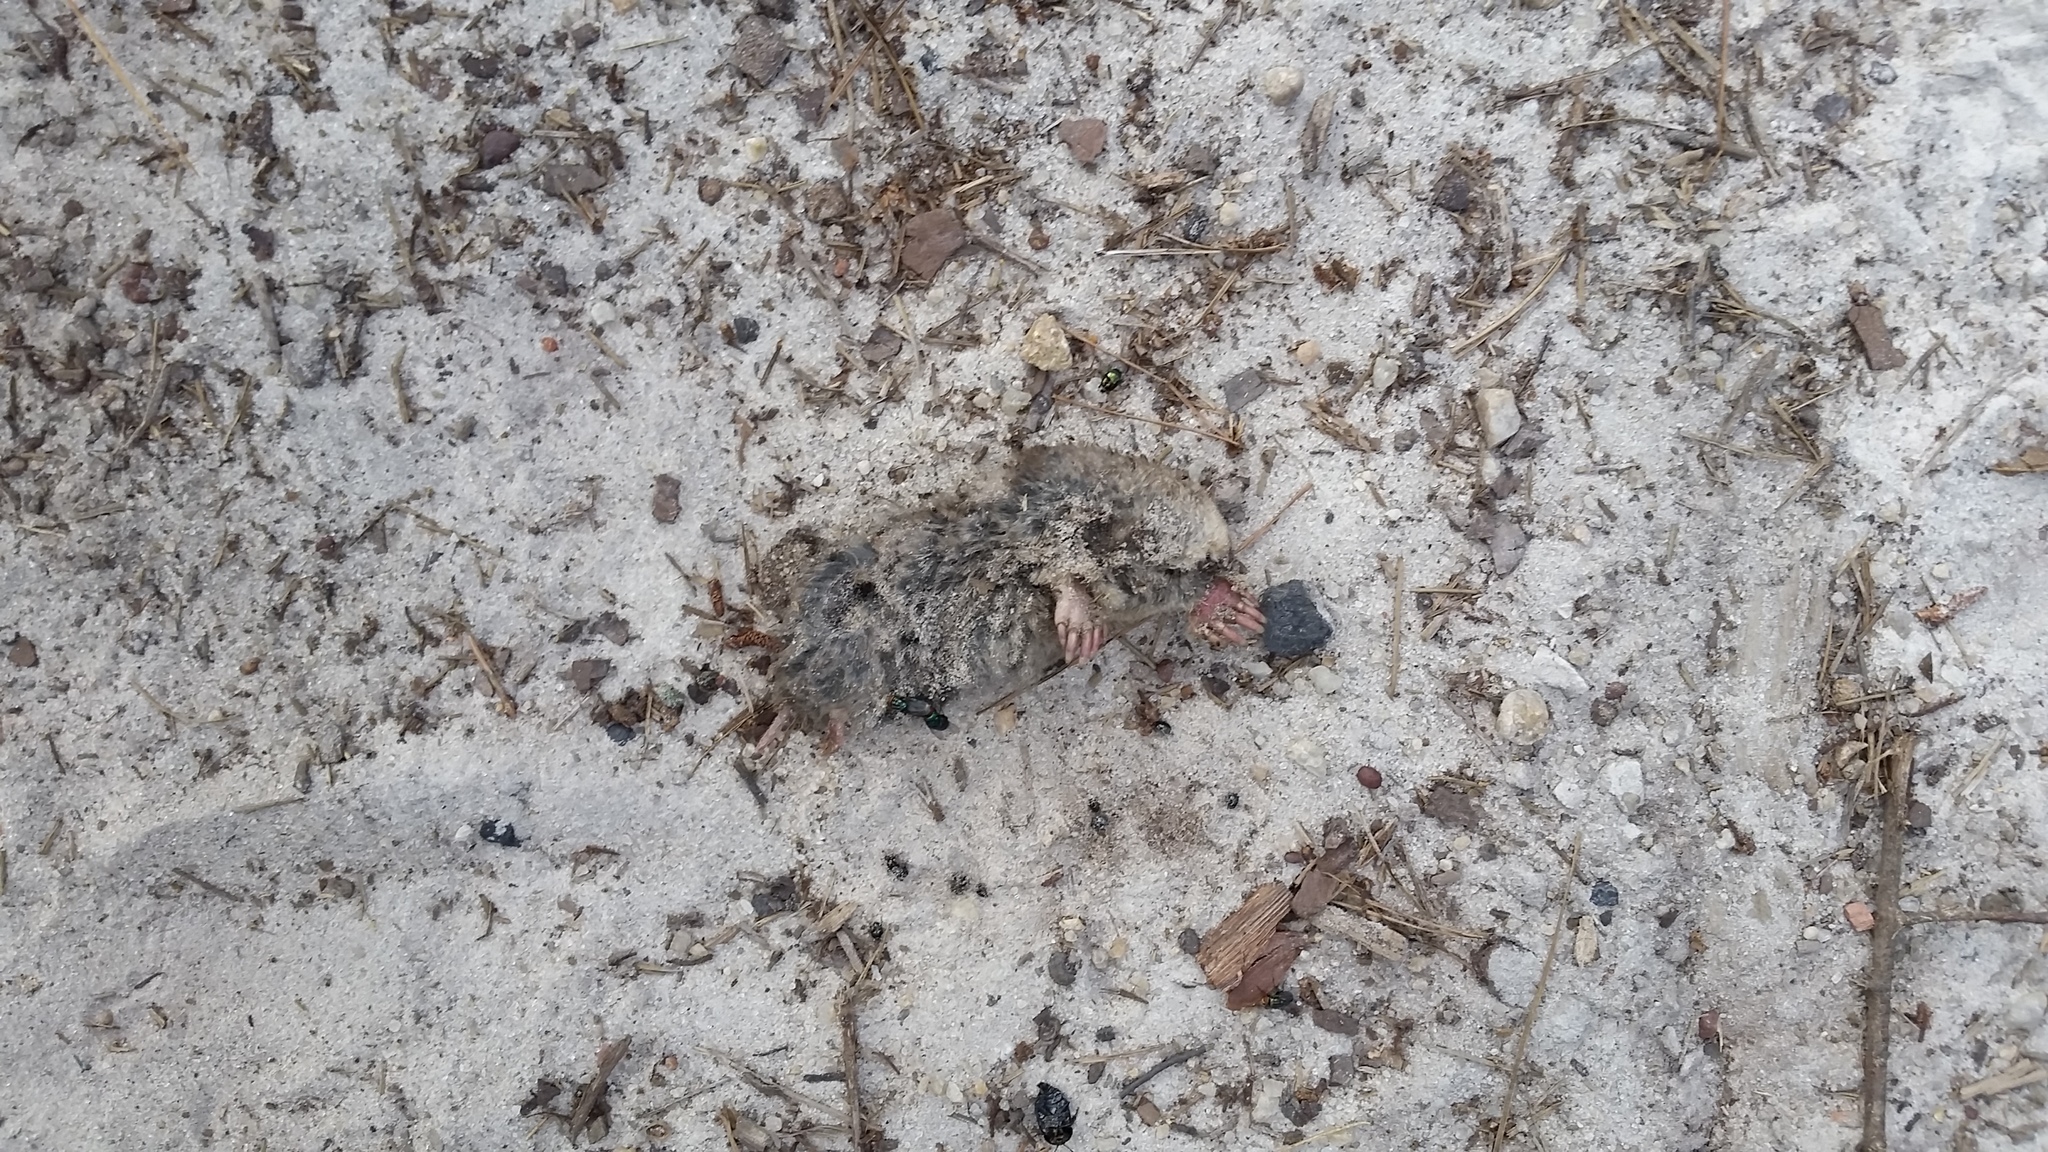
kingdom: Animalia
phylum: Chordata
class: Mammalia
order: Soricomorpha
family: Talpidae
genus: Scalopus
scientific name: Scalopus aquaticus
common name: Eastern mole
